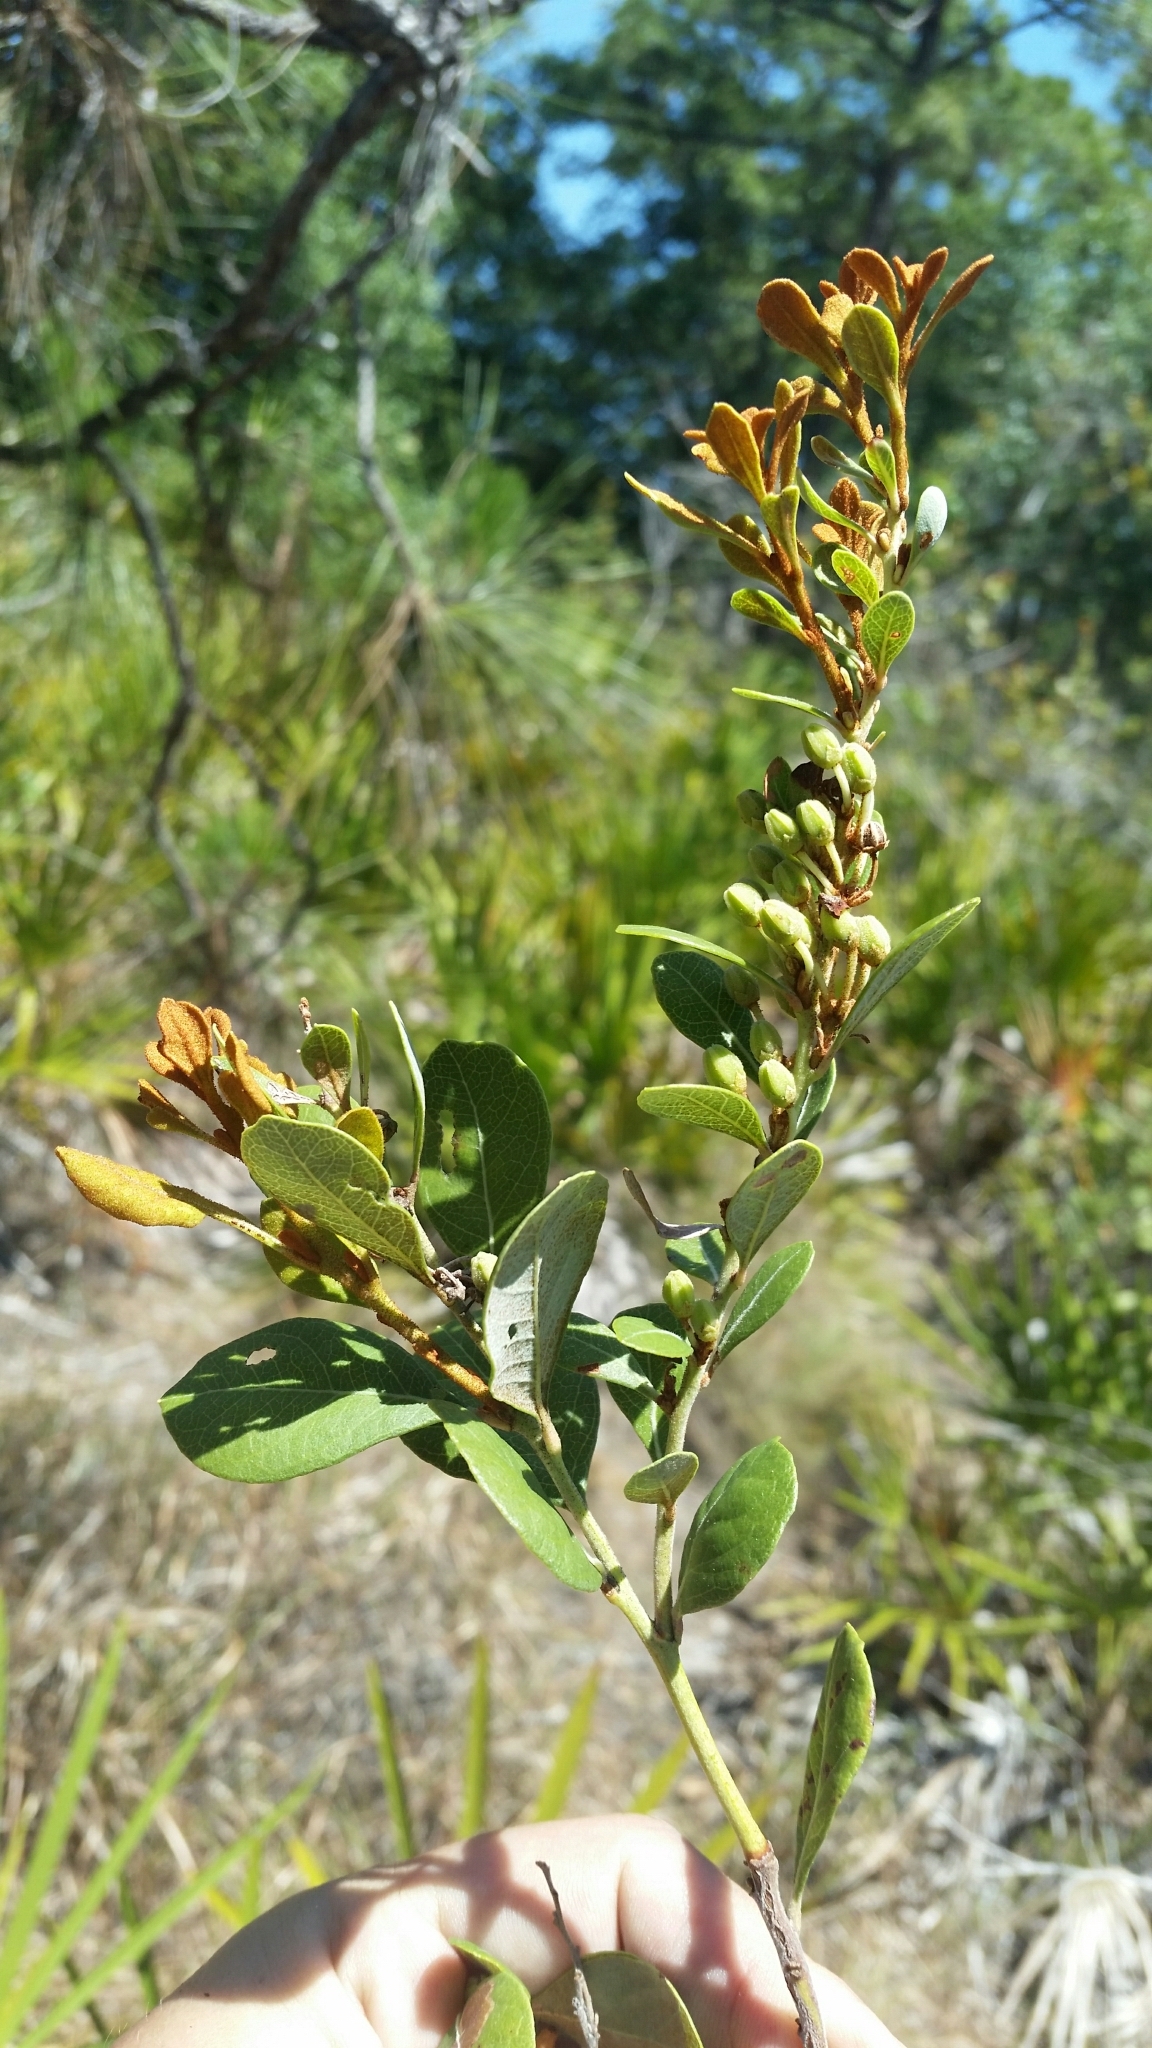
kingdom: Plantae
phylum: Tracheophyta
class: Magnoliopsida
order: Ericales
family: Ericaceae
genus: Lyonia
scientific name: Lyonia fruticosa
